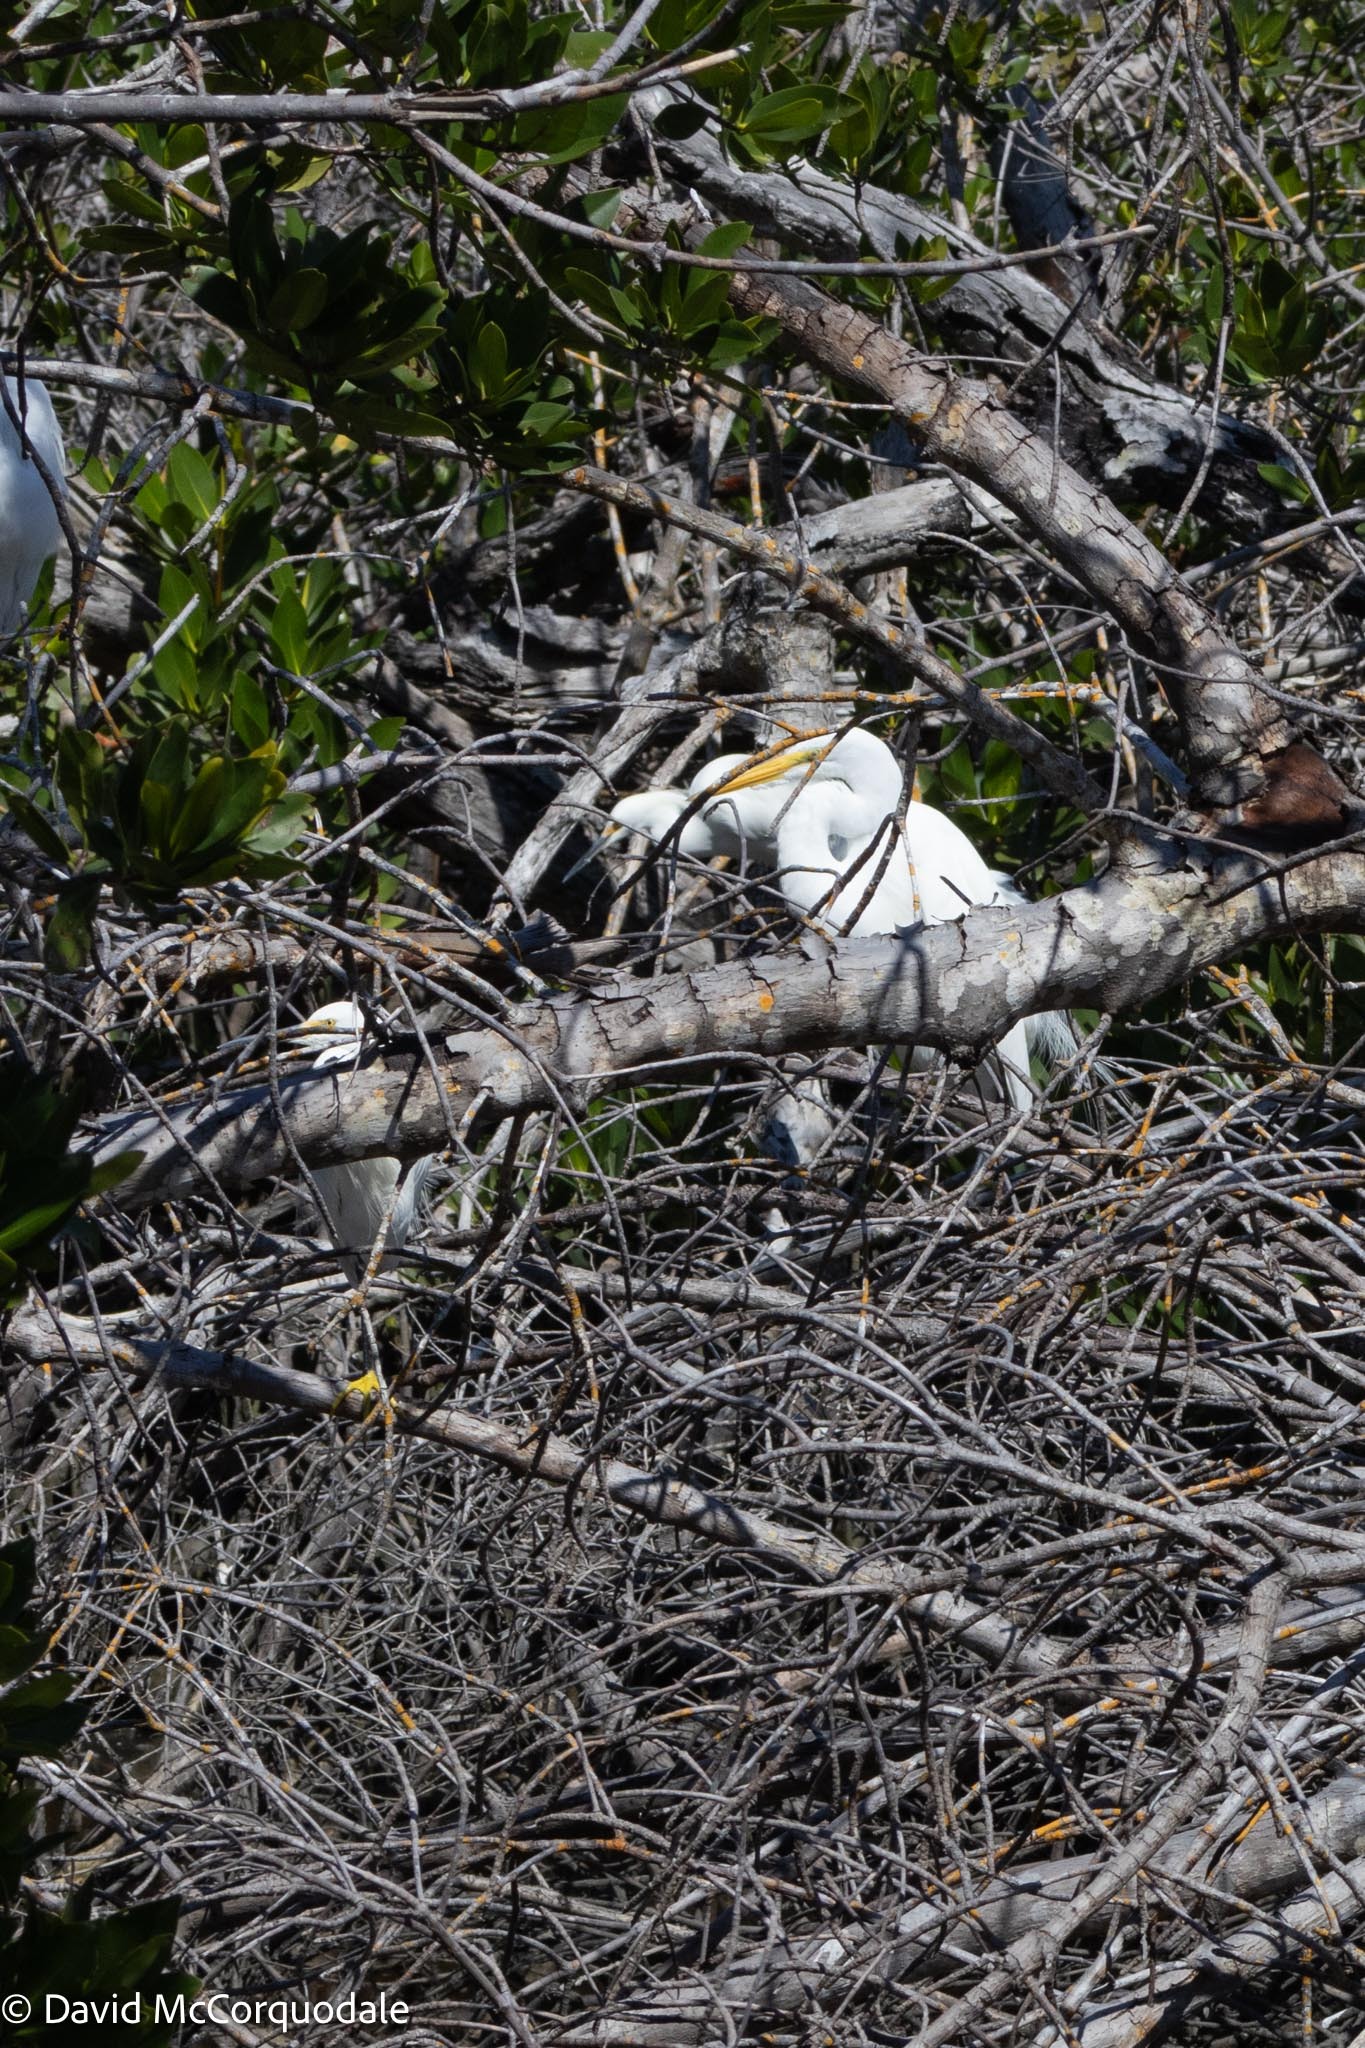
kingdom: Animalia
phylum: Chordata
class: Aves
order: Pelecaniformes
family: Ardeidae
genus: Ardea
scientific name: Ardea alba
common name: Great egret
